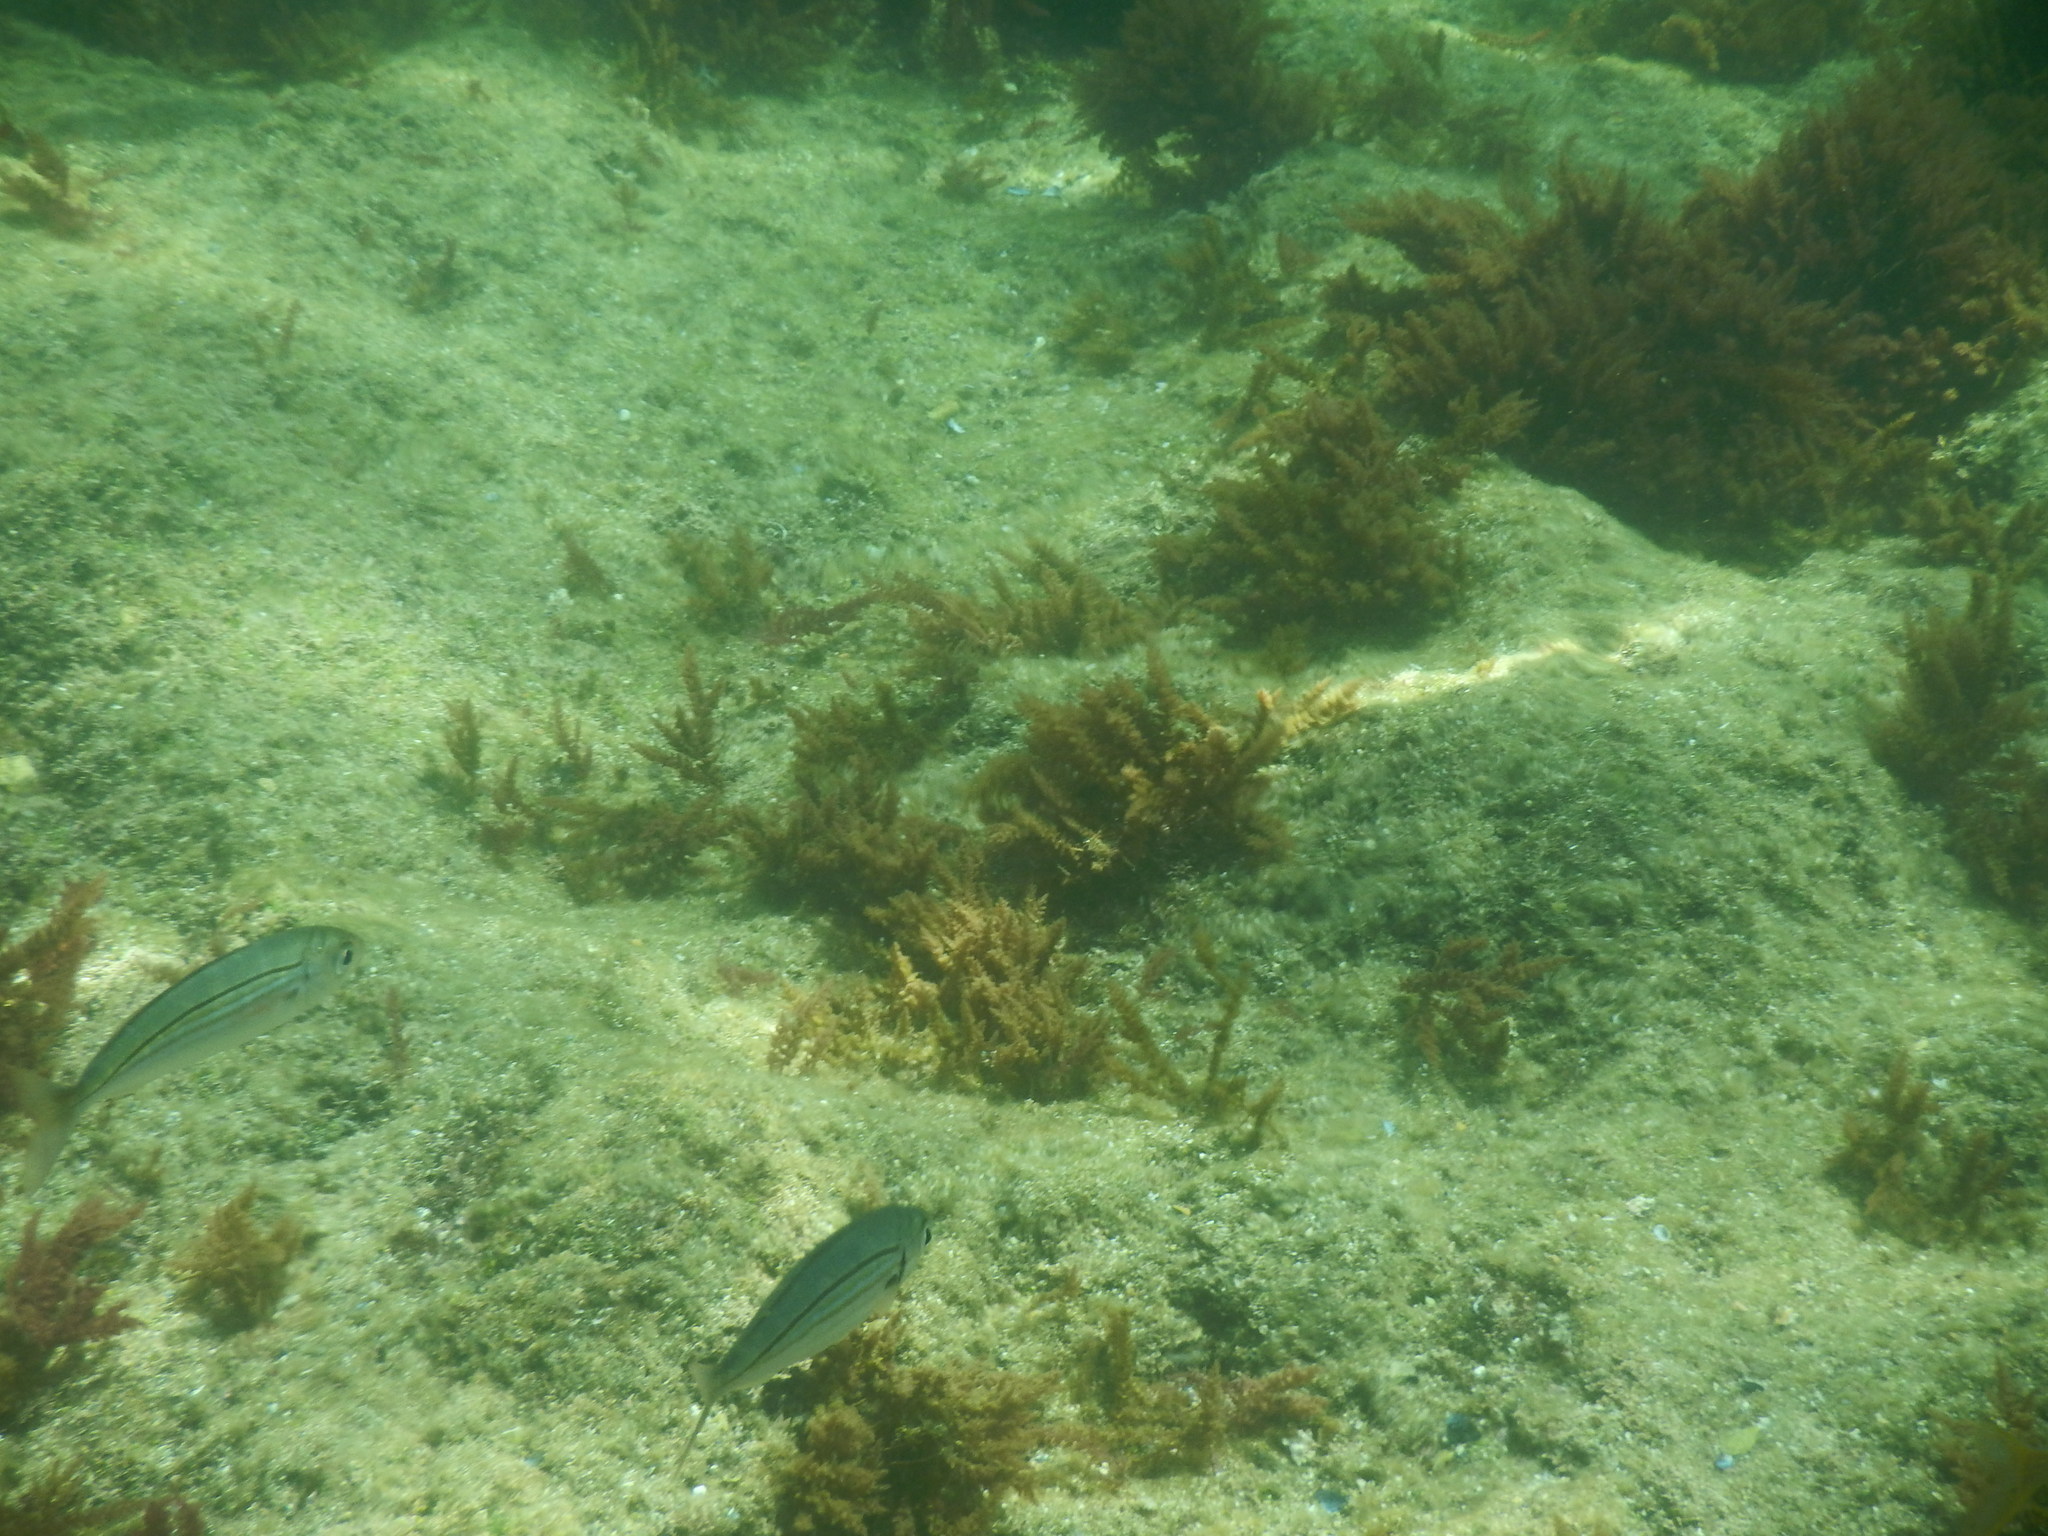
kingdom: Animalia
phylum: Chordata
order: Perciformes
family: Sparidae
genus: Boops
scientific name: Boops boops
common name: Bogue
